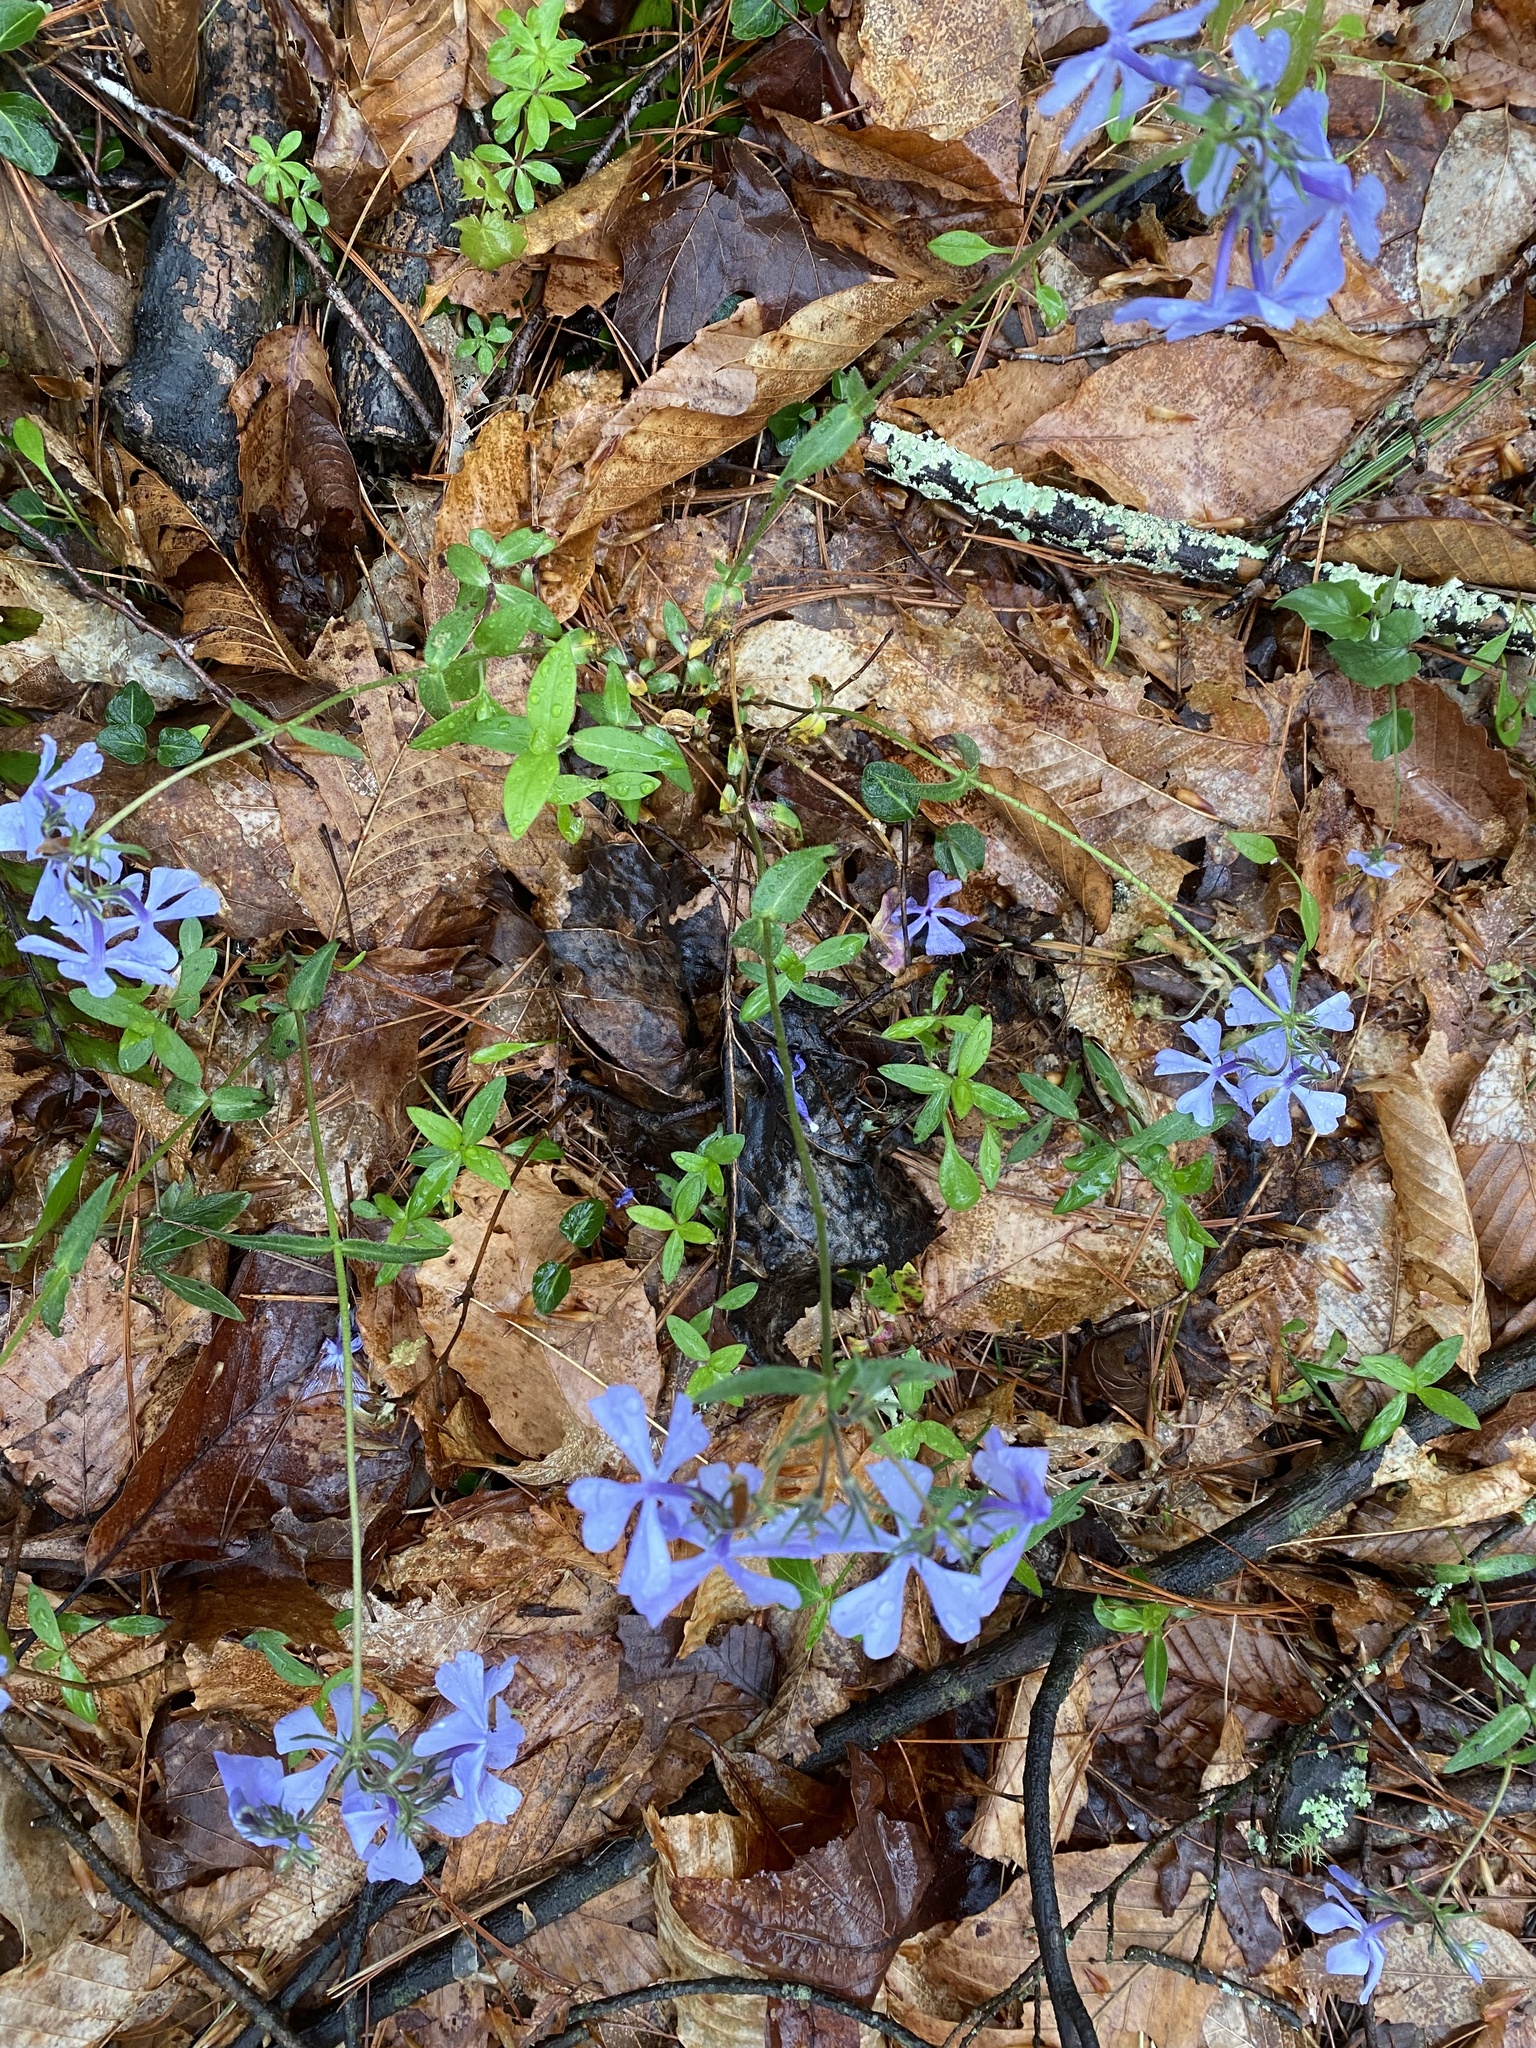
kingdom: Plantae
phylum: Tracheophyta
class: Magnoliopsida
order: Ericales
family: Polemoniaceae
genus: Phlox
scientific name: Phlox divaricata
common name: Blue phlox
